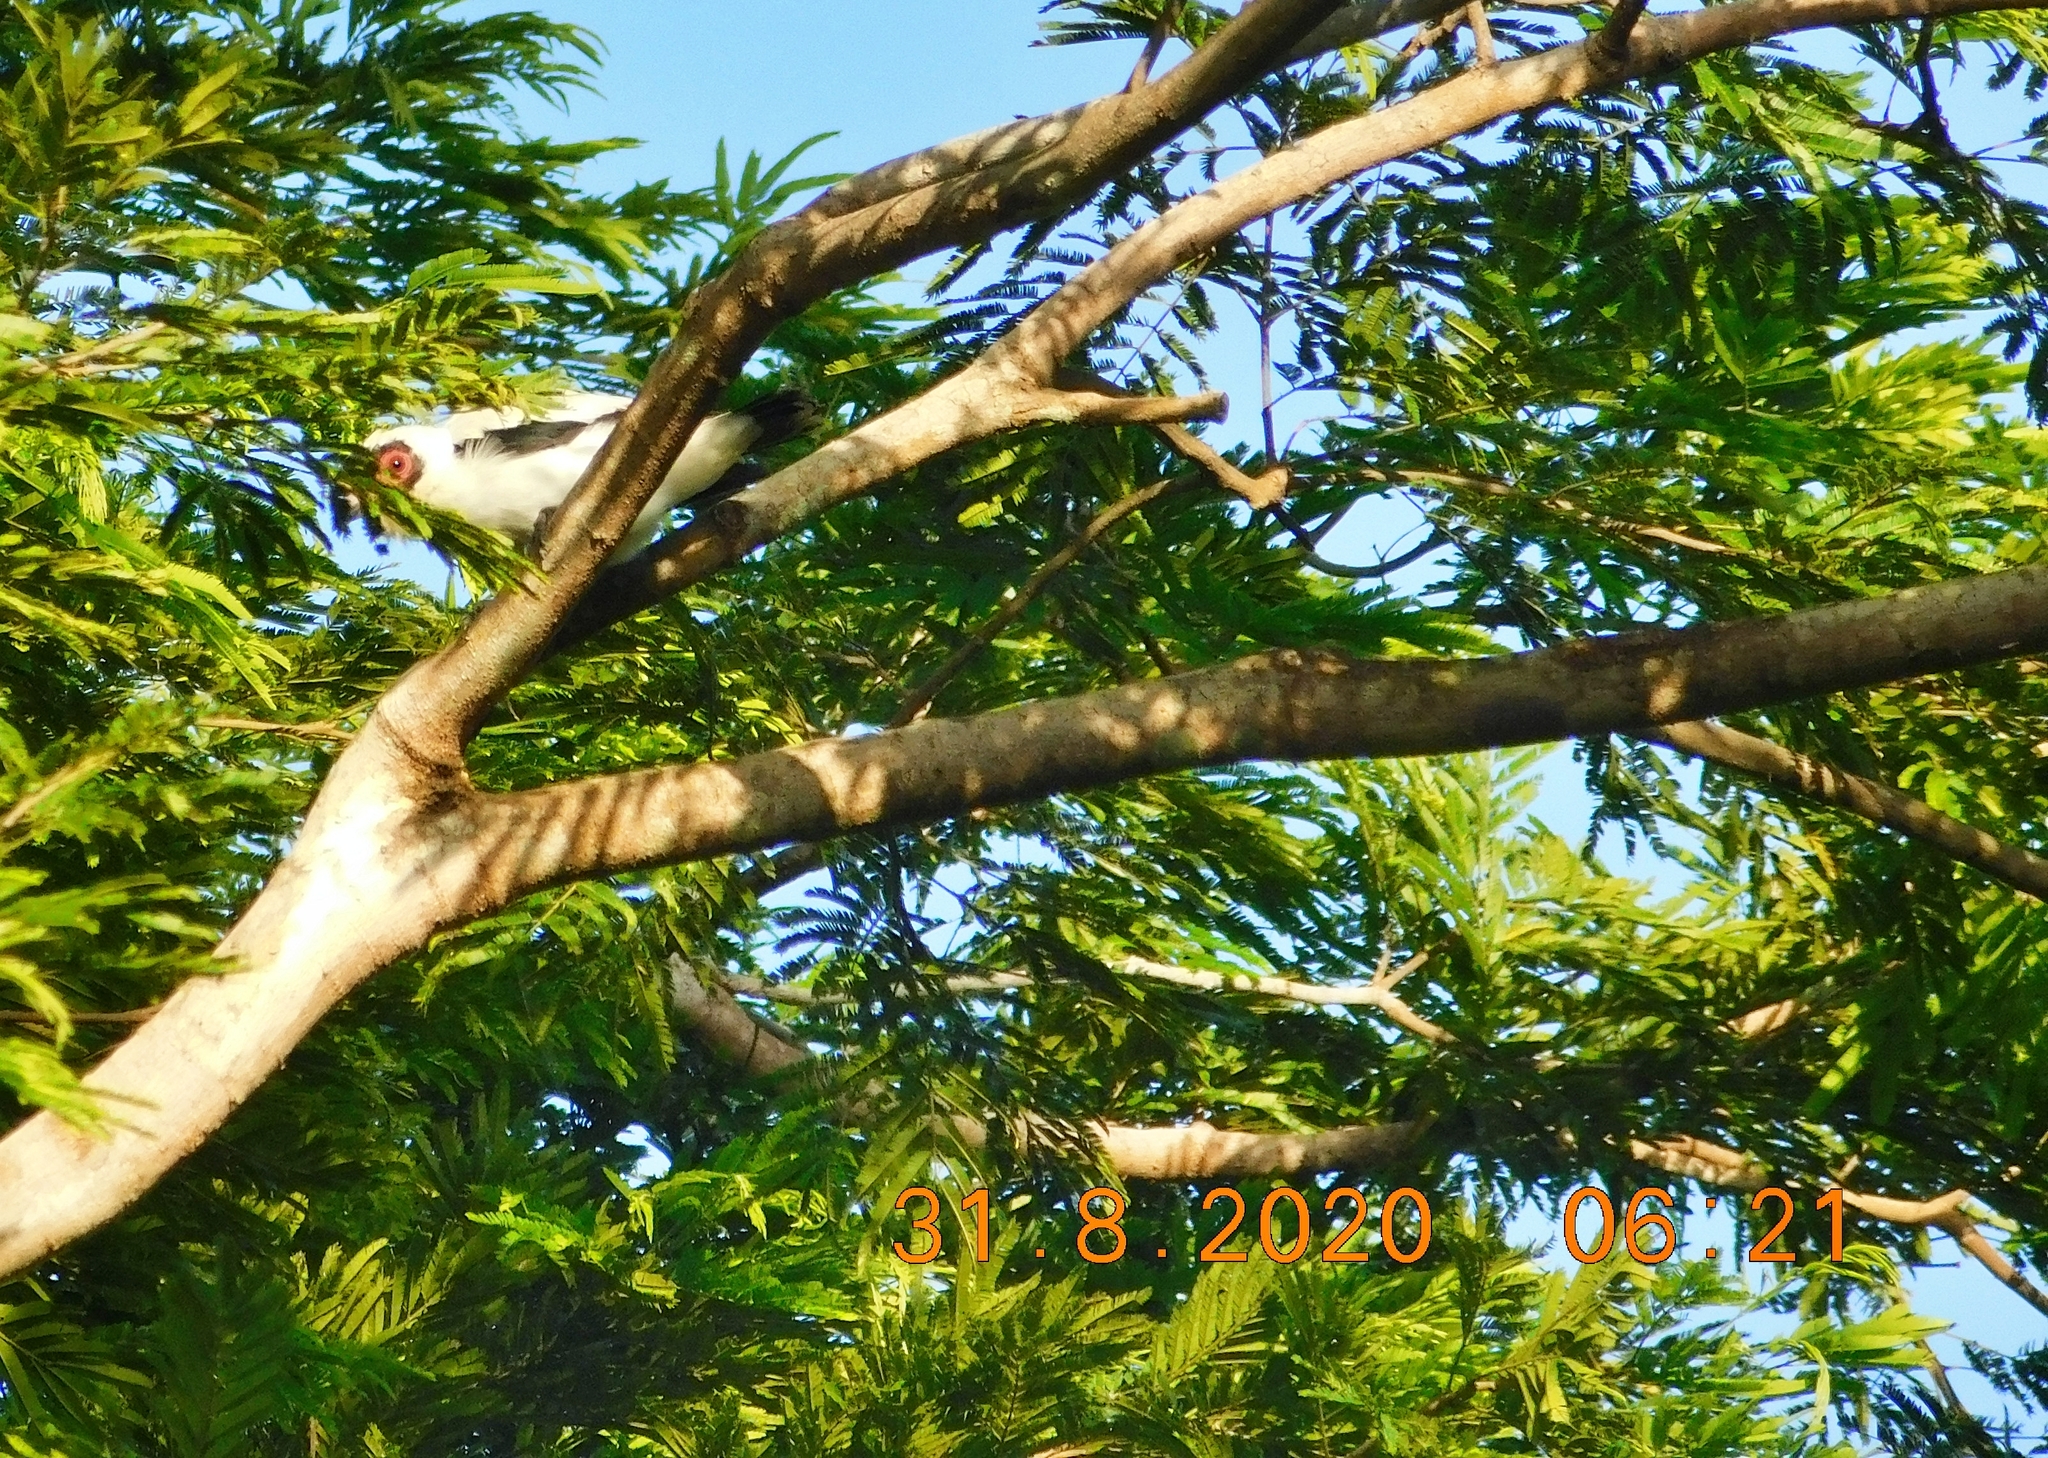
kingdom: Animalia
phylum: Chordata
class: Aves
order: Passeriformes
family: Cotingidae
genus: Tityra
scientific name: Tityra semifasciata
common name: Masked tityra
